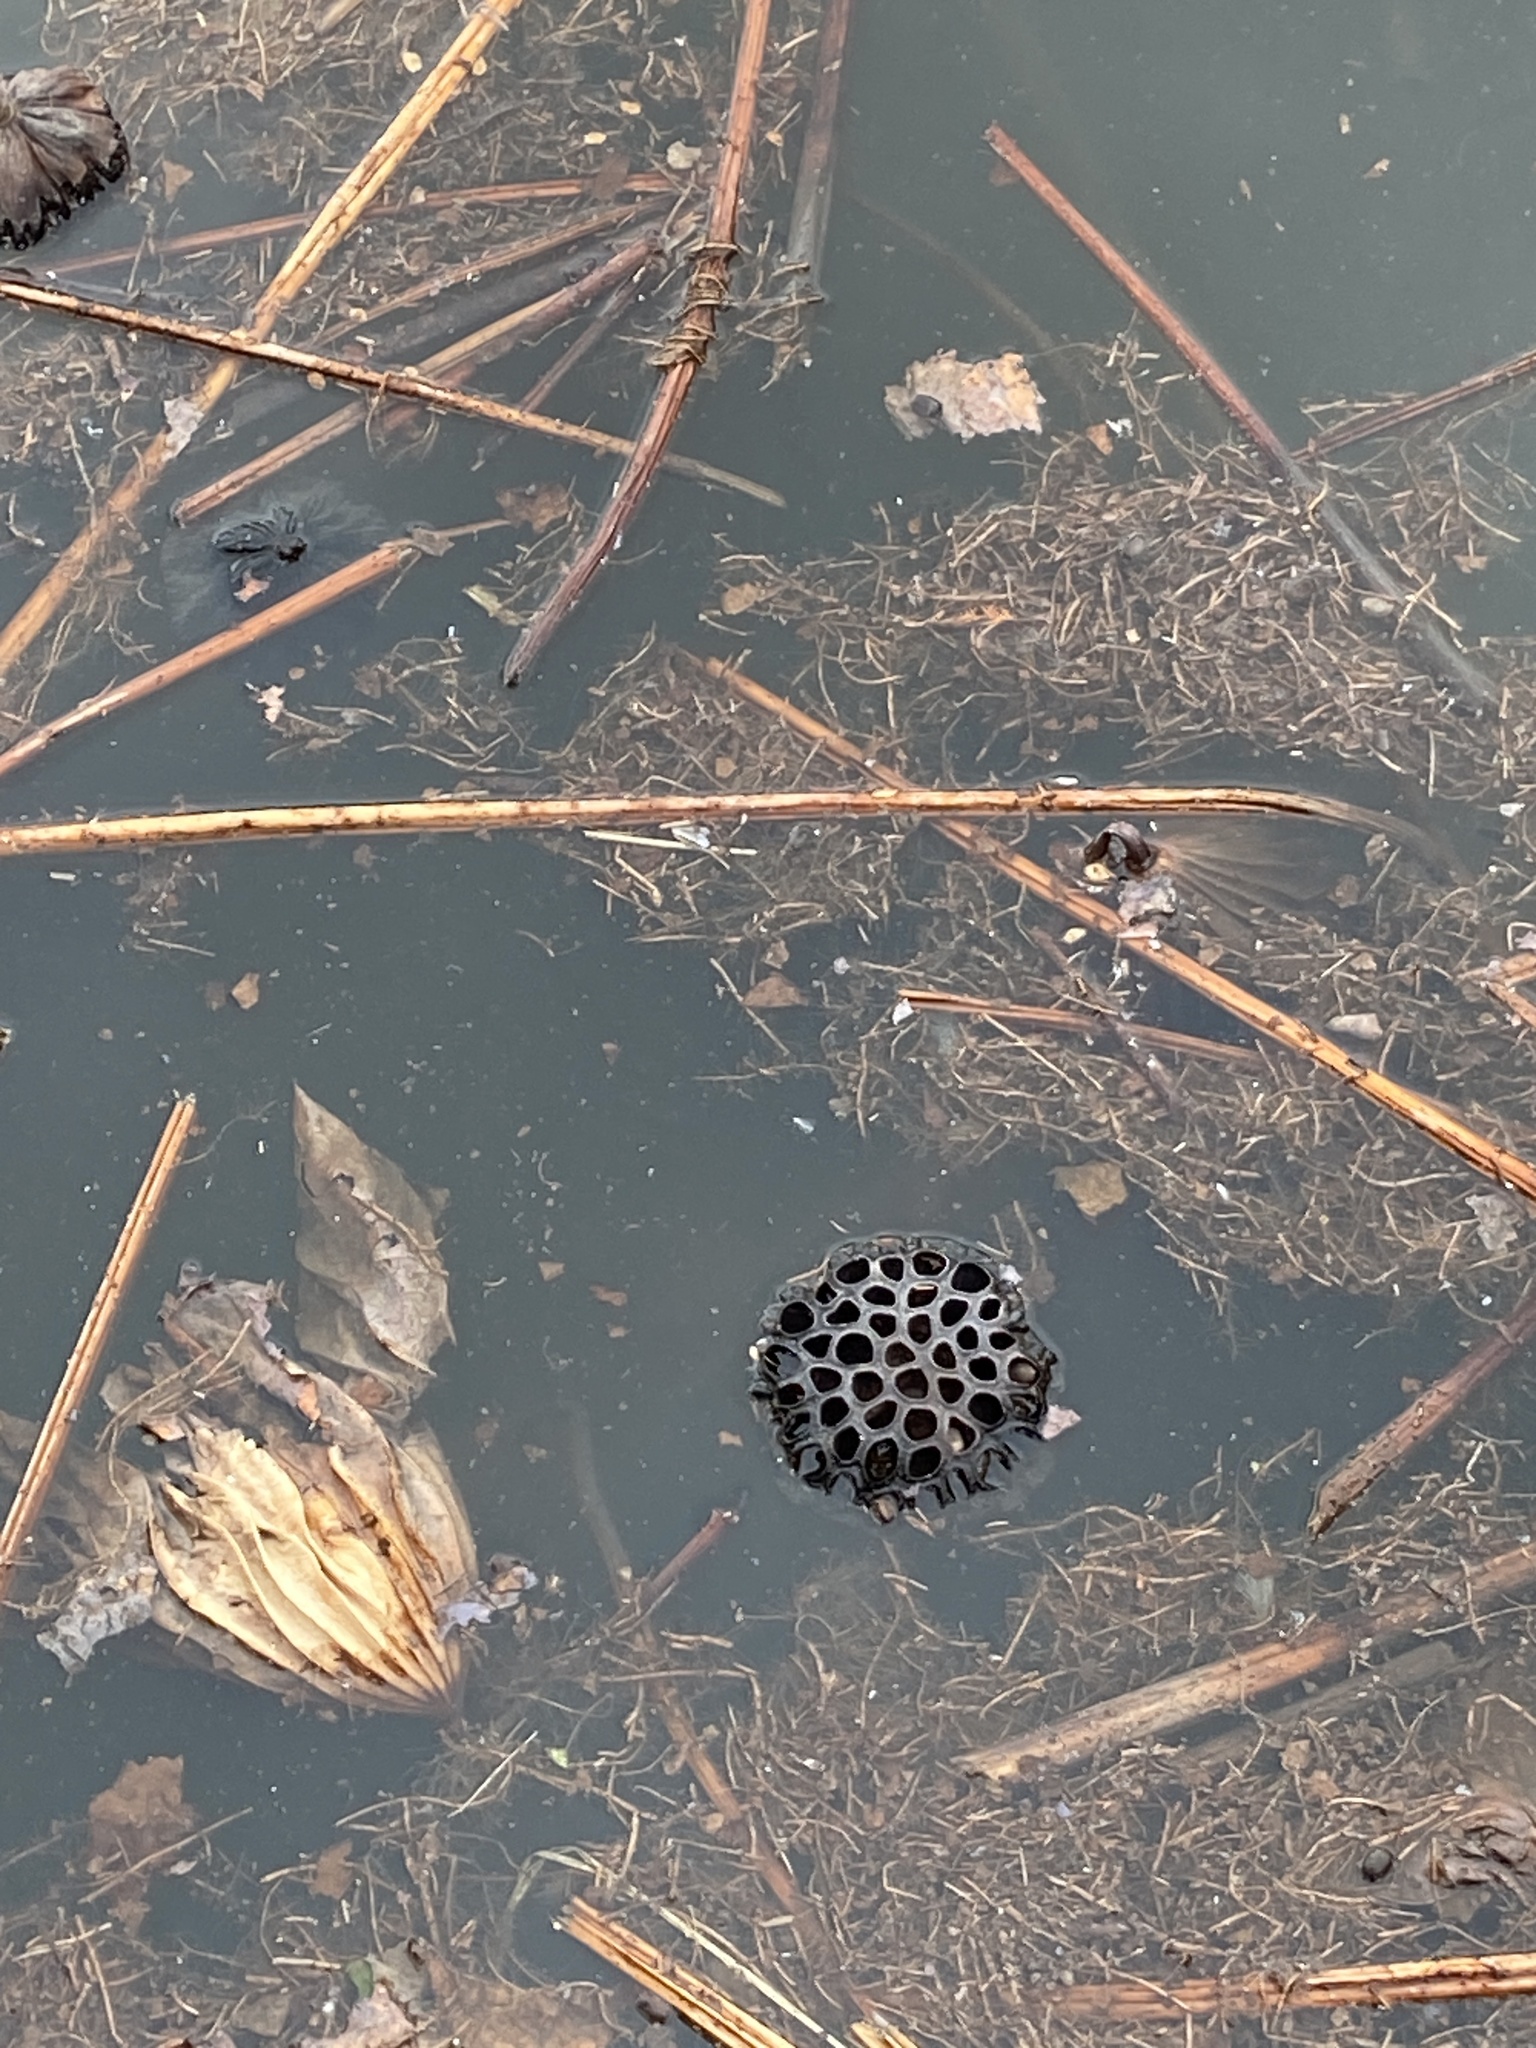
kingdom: Plantae
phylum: Tracheophyta
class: Magnoliopsida
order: Proteales
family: Nelumbonaceae
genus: Nelumbo
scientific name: Nelumbo nucifera
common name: Sacred lotus
